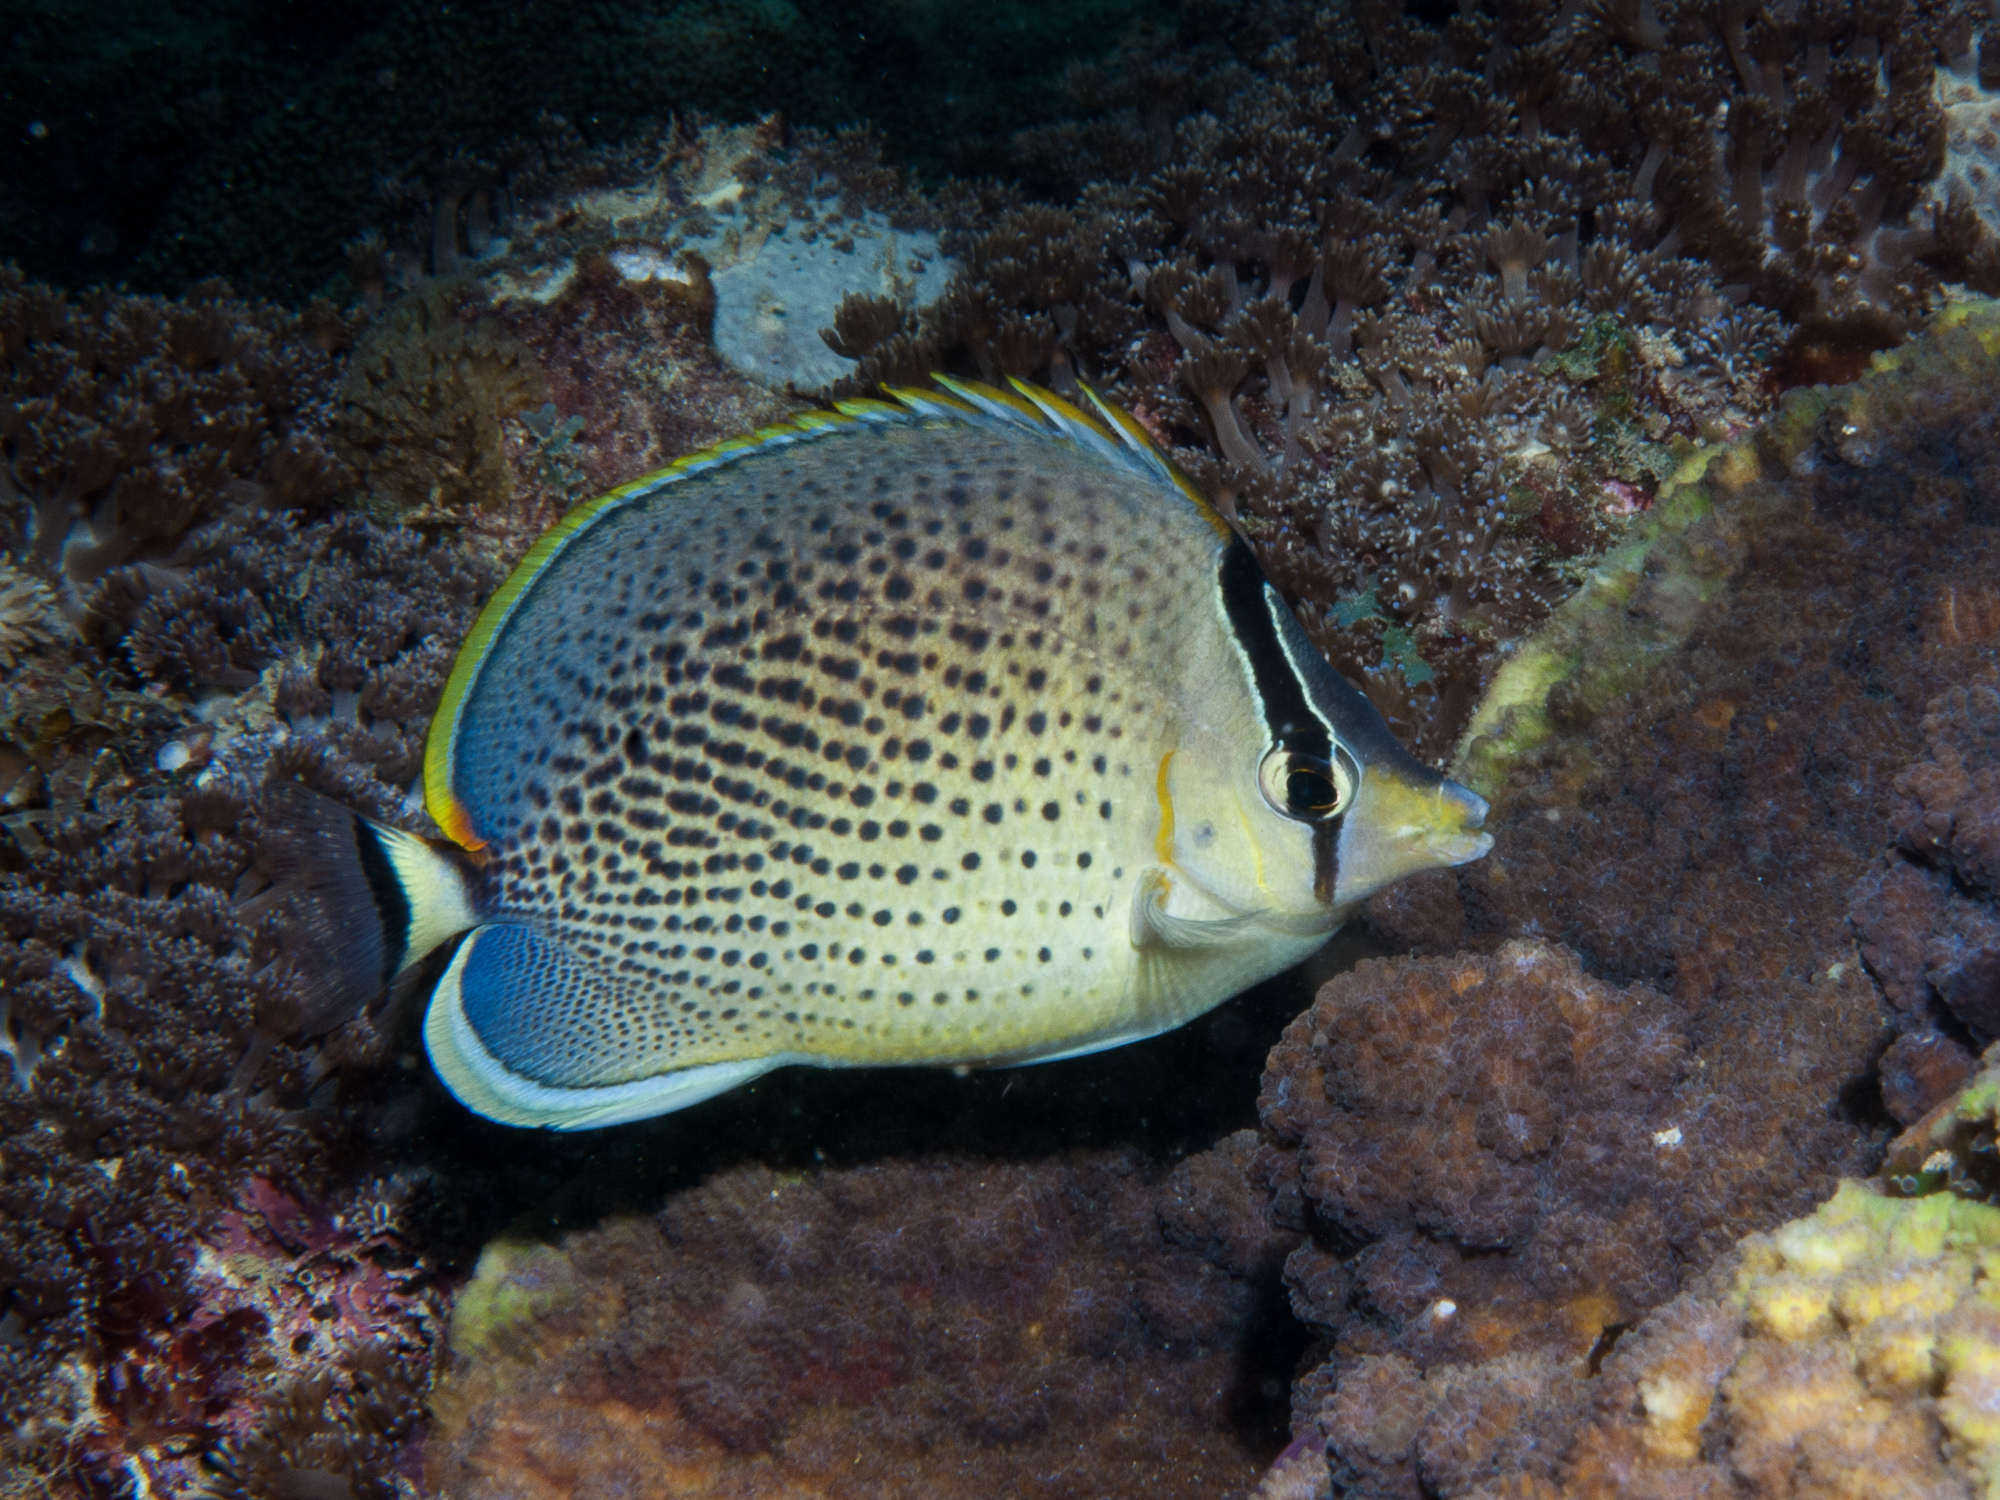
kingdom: Animalia
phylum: Chordata
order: Perciformes
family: Chaetodontidae
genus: Chaetodon
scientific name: Chaetodon guttatissimus
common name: Spotted butterflyfish
